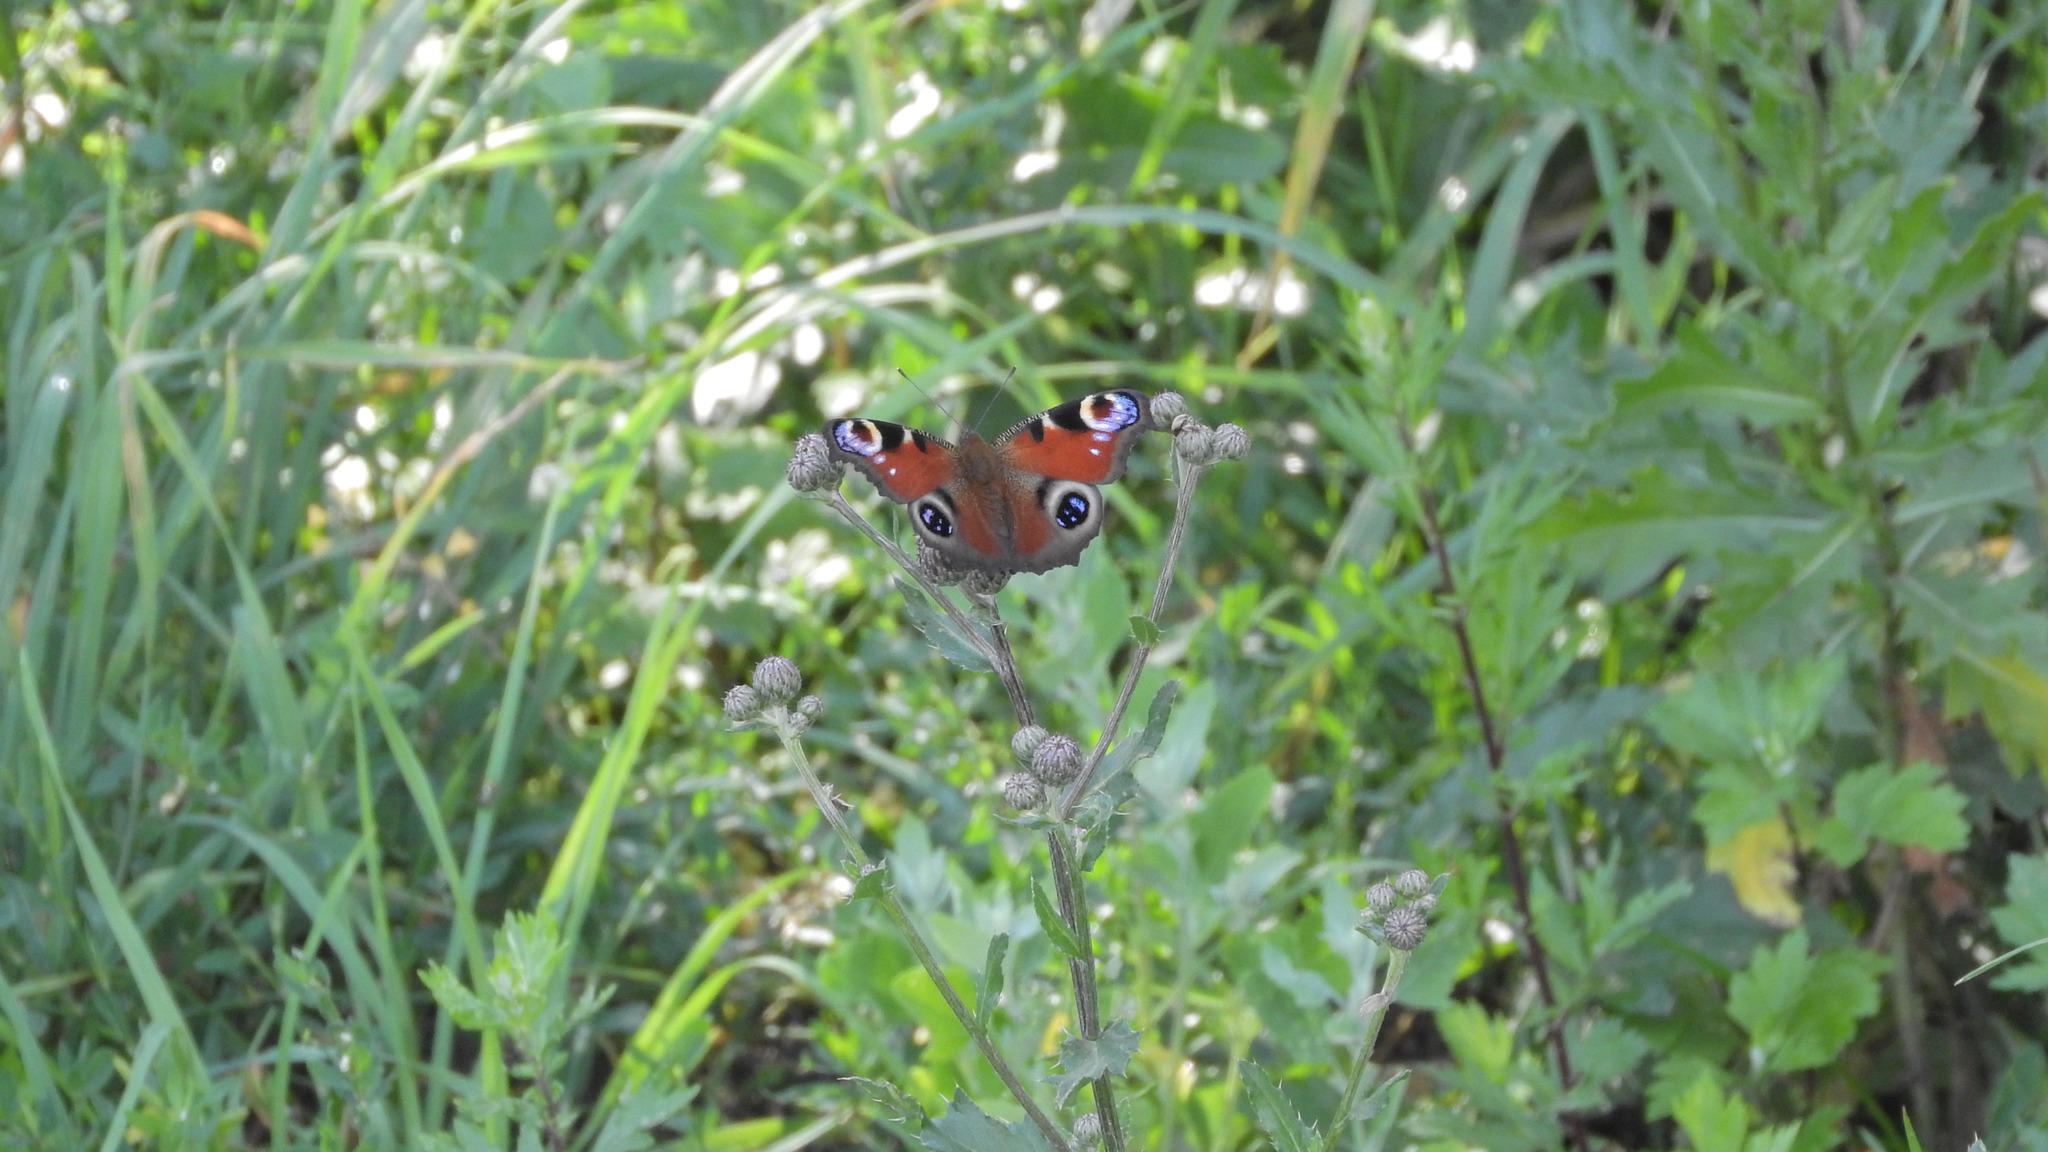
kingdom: Animalia
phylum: Arthropoda
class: Insecta
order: Lepidoptera
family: Nymphalidae
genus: Aglais
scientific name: Aglais io
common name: Peacock
